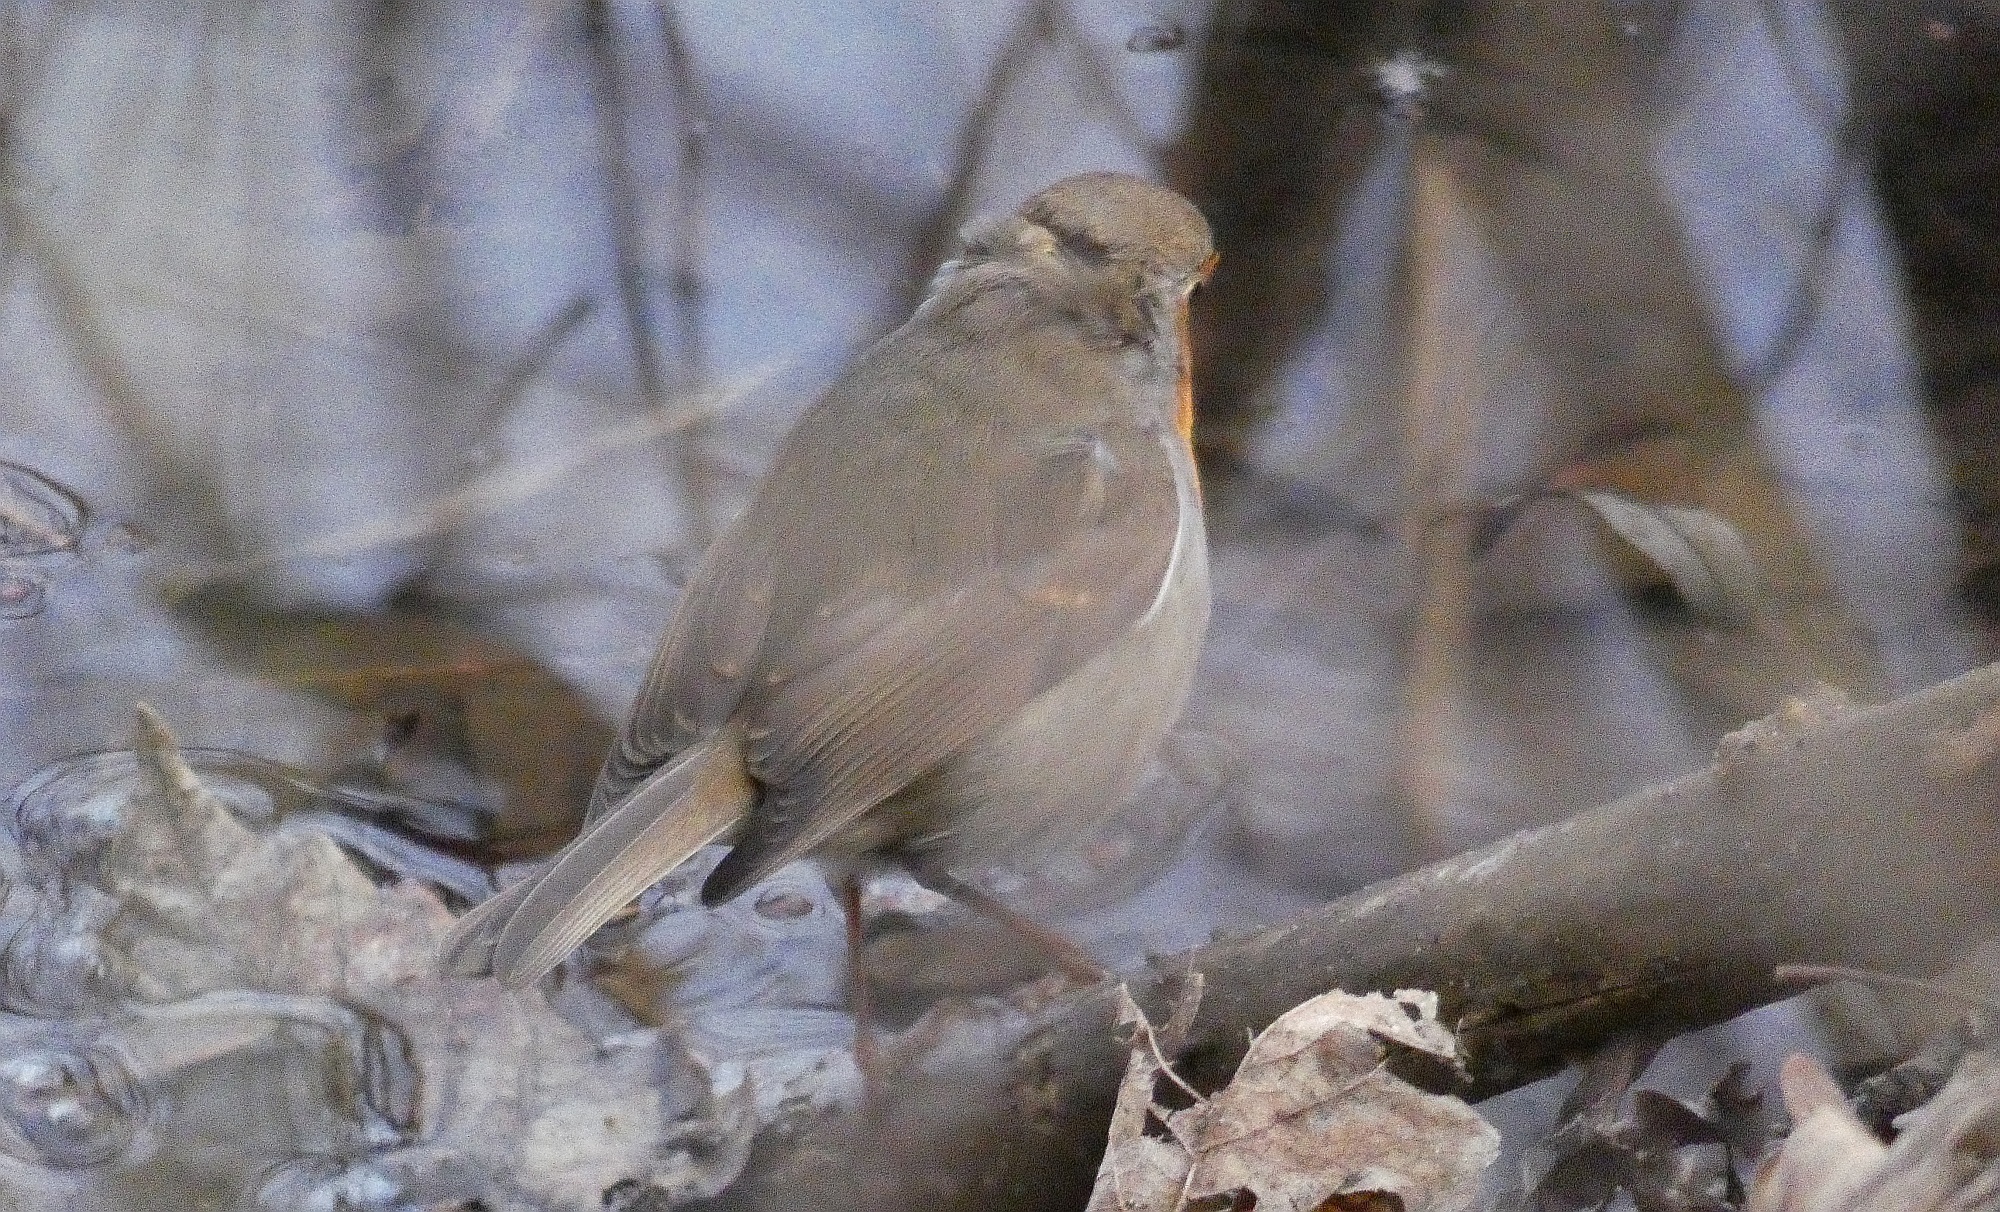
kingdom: Animalia
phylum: Chordata
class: Aves
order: Passeriformes
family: Muscicapidae
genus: Erithacus
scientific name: Erithacus rubecula
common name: European robin
